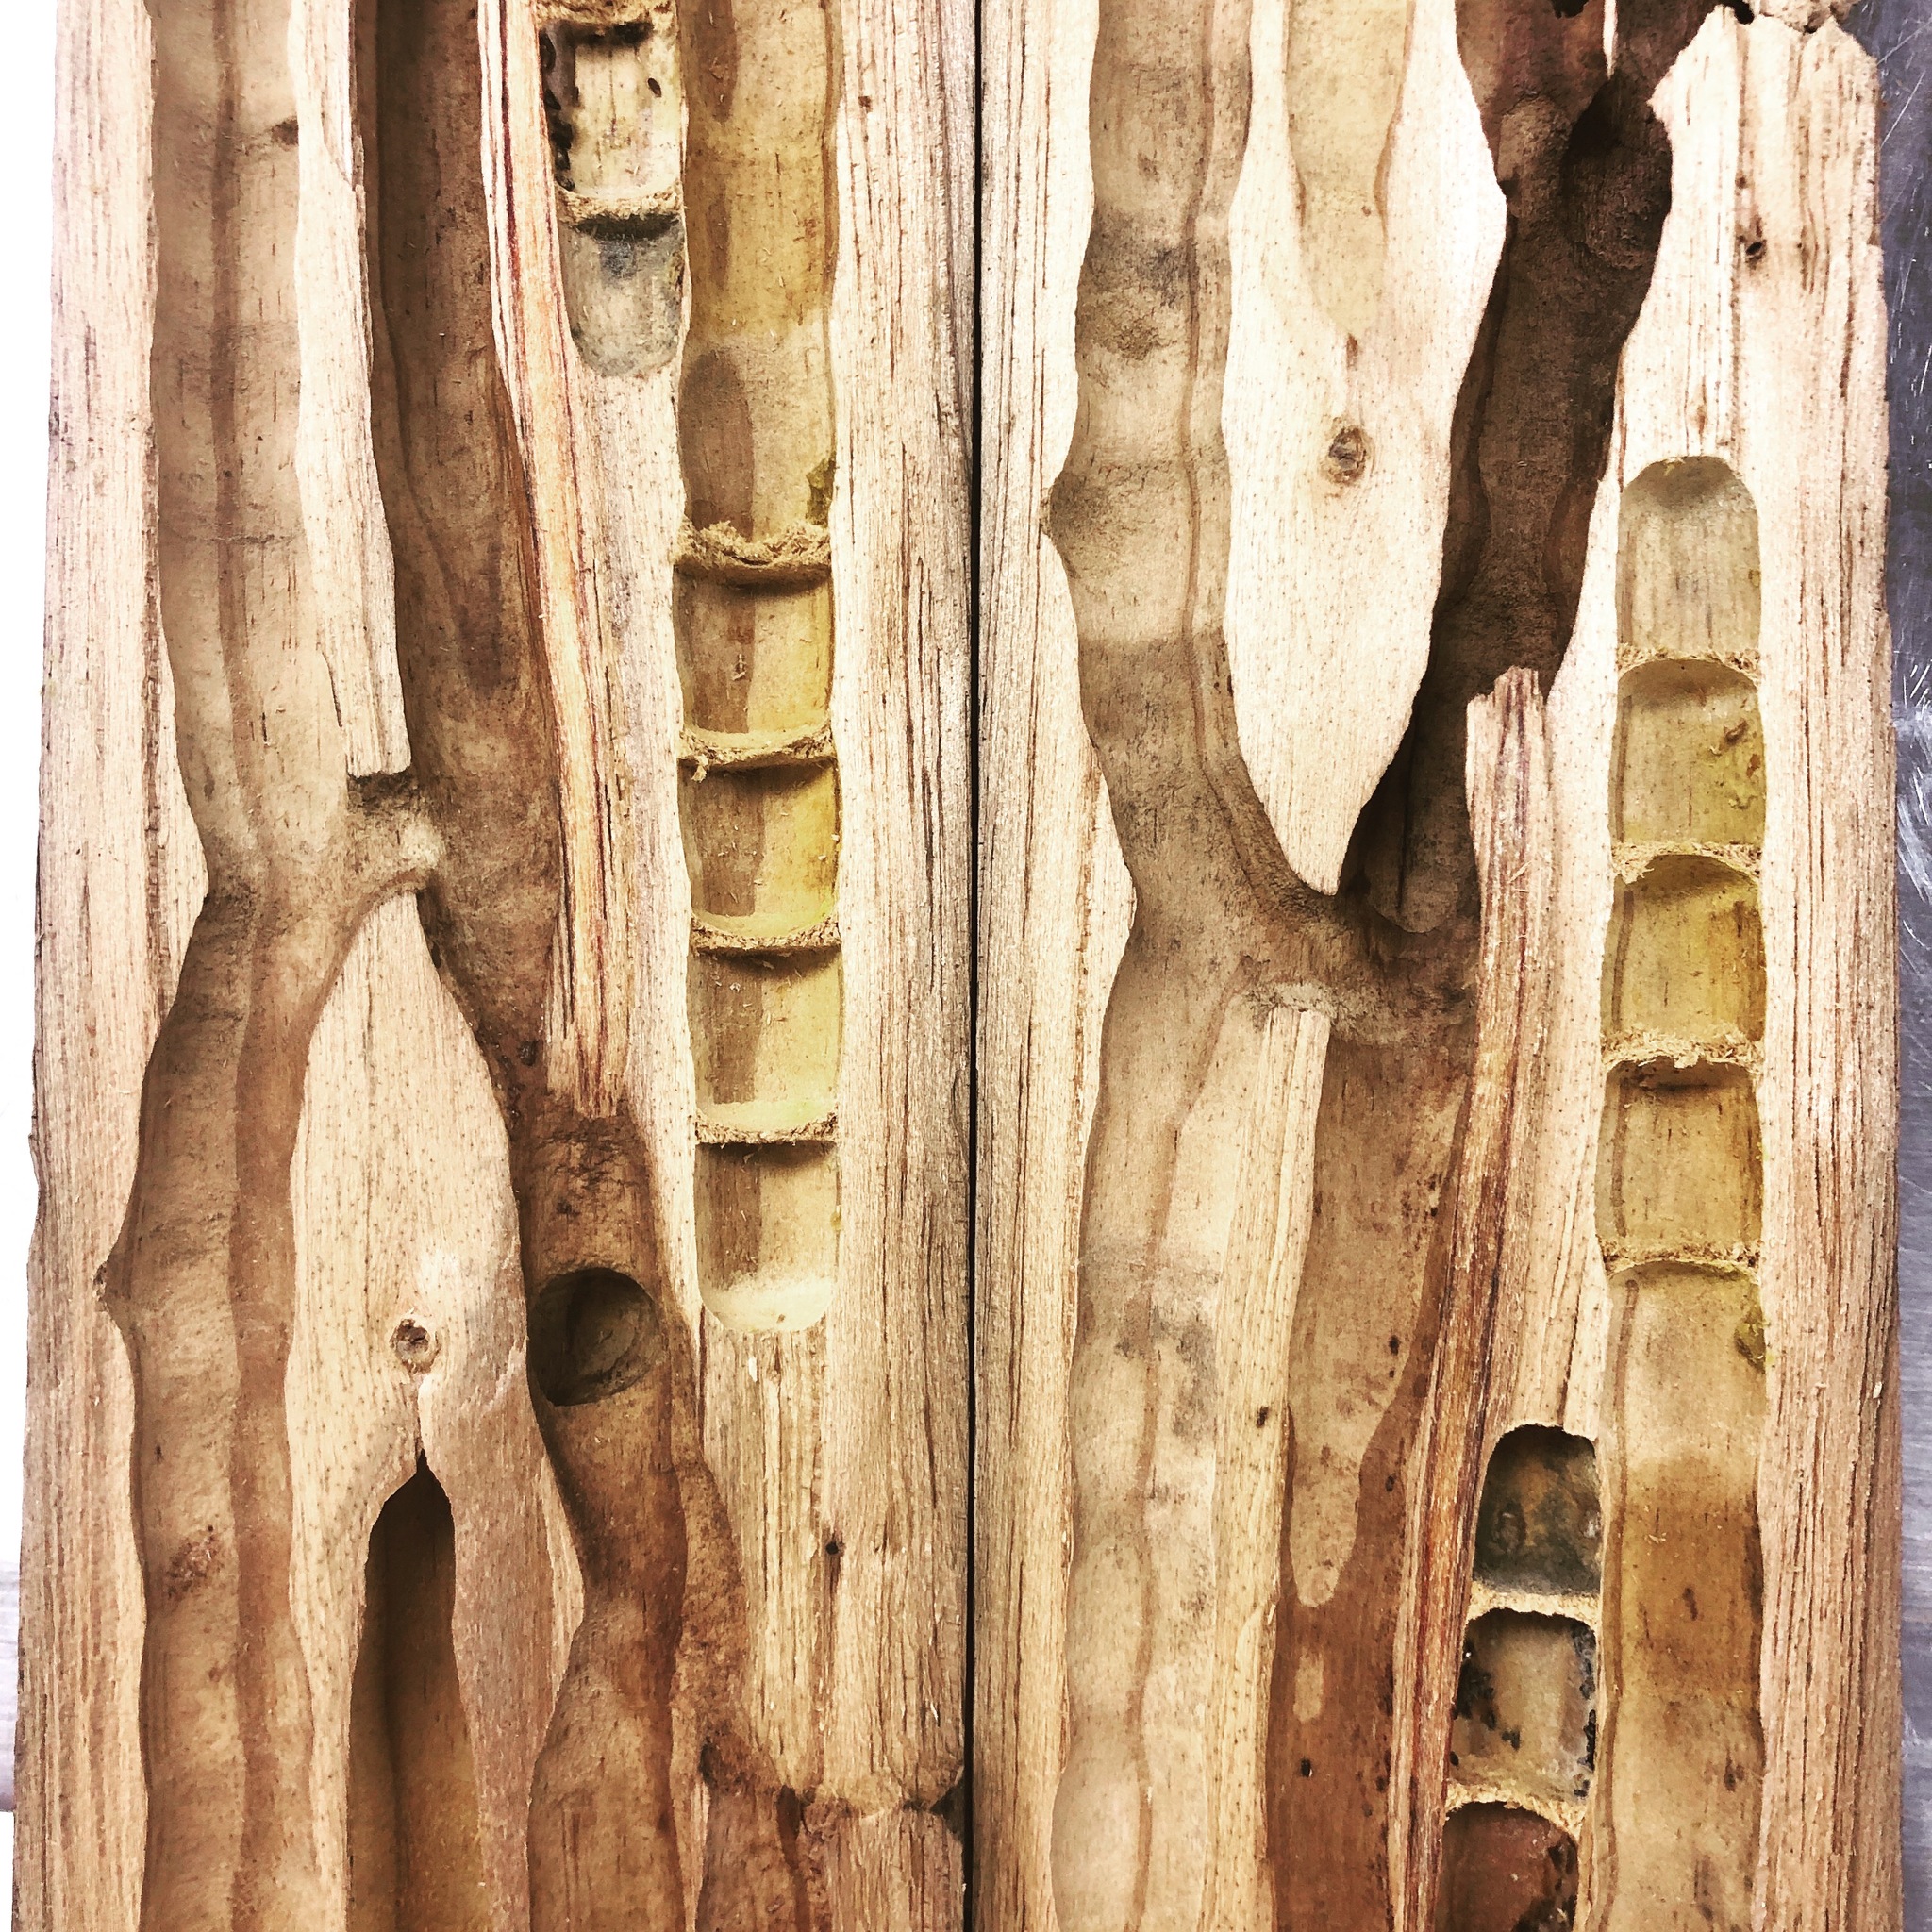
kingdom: Animalia
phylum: Arthropoda
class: Insecta
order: Hymenoptera
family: Apidae
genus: Xylocopa
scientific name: Xylocopa virginica
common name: Carpenter bee
